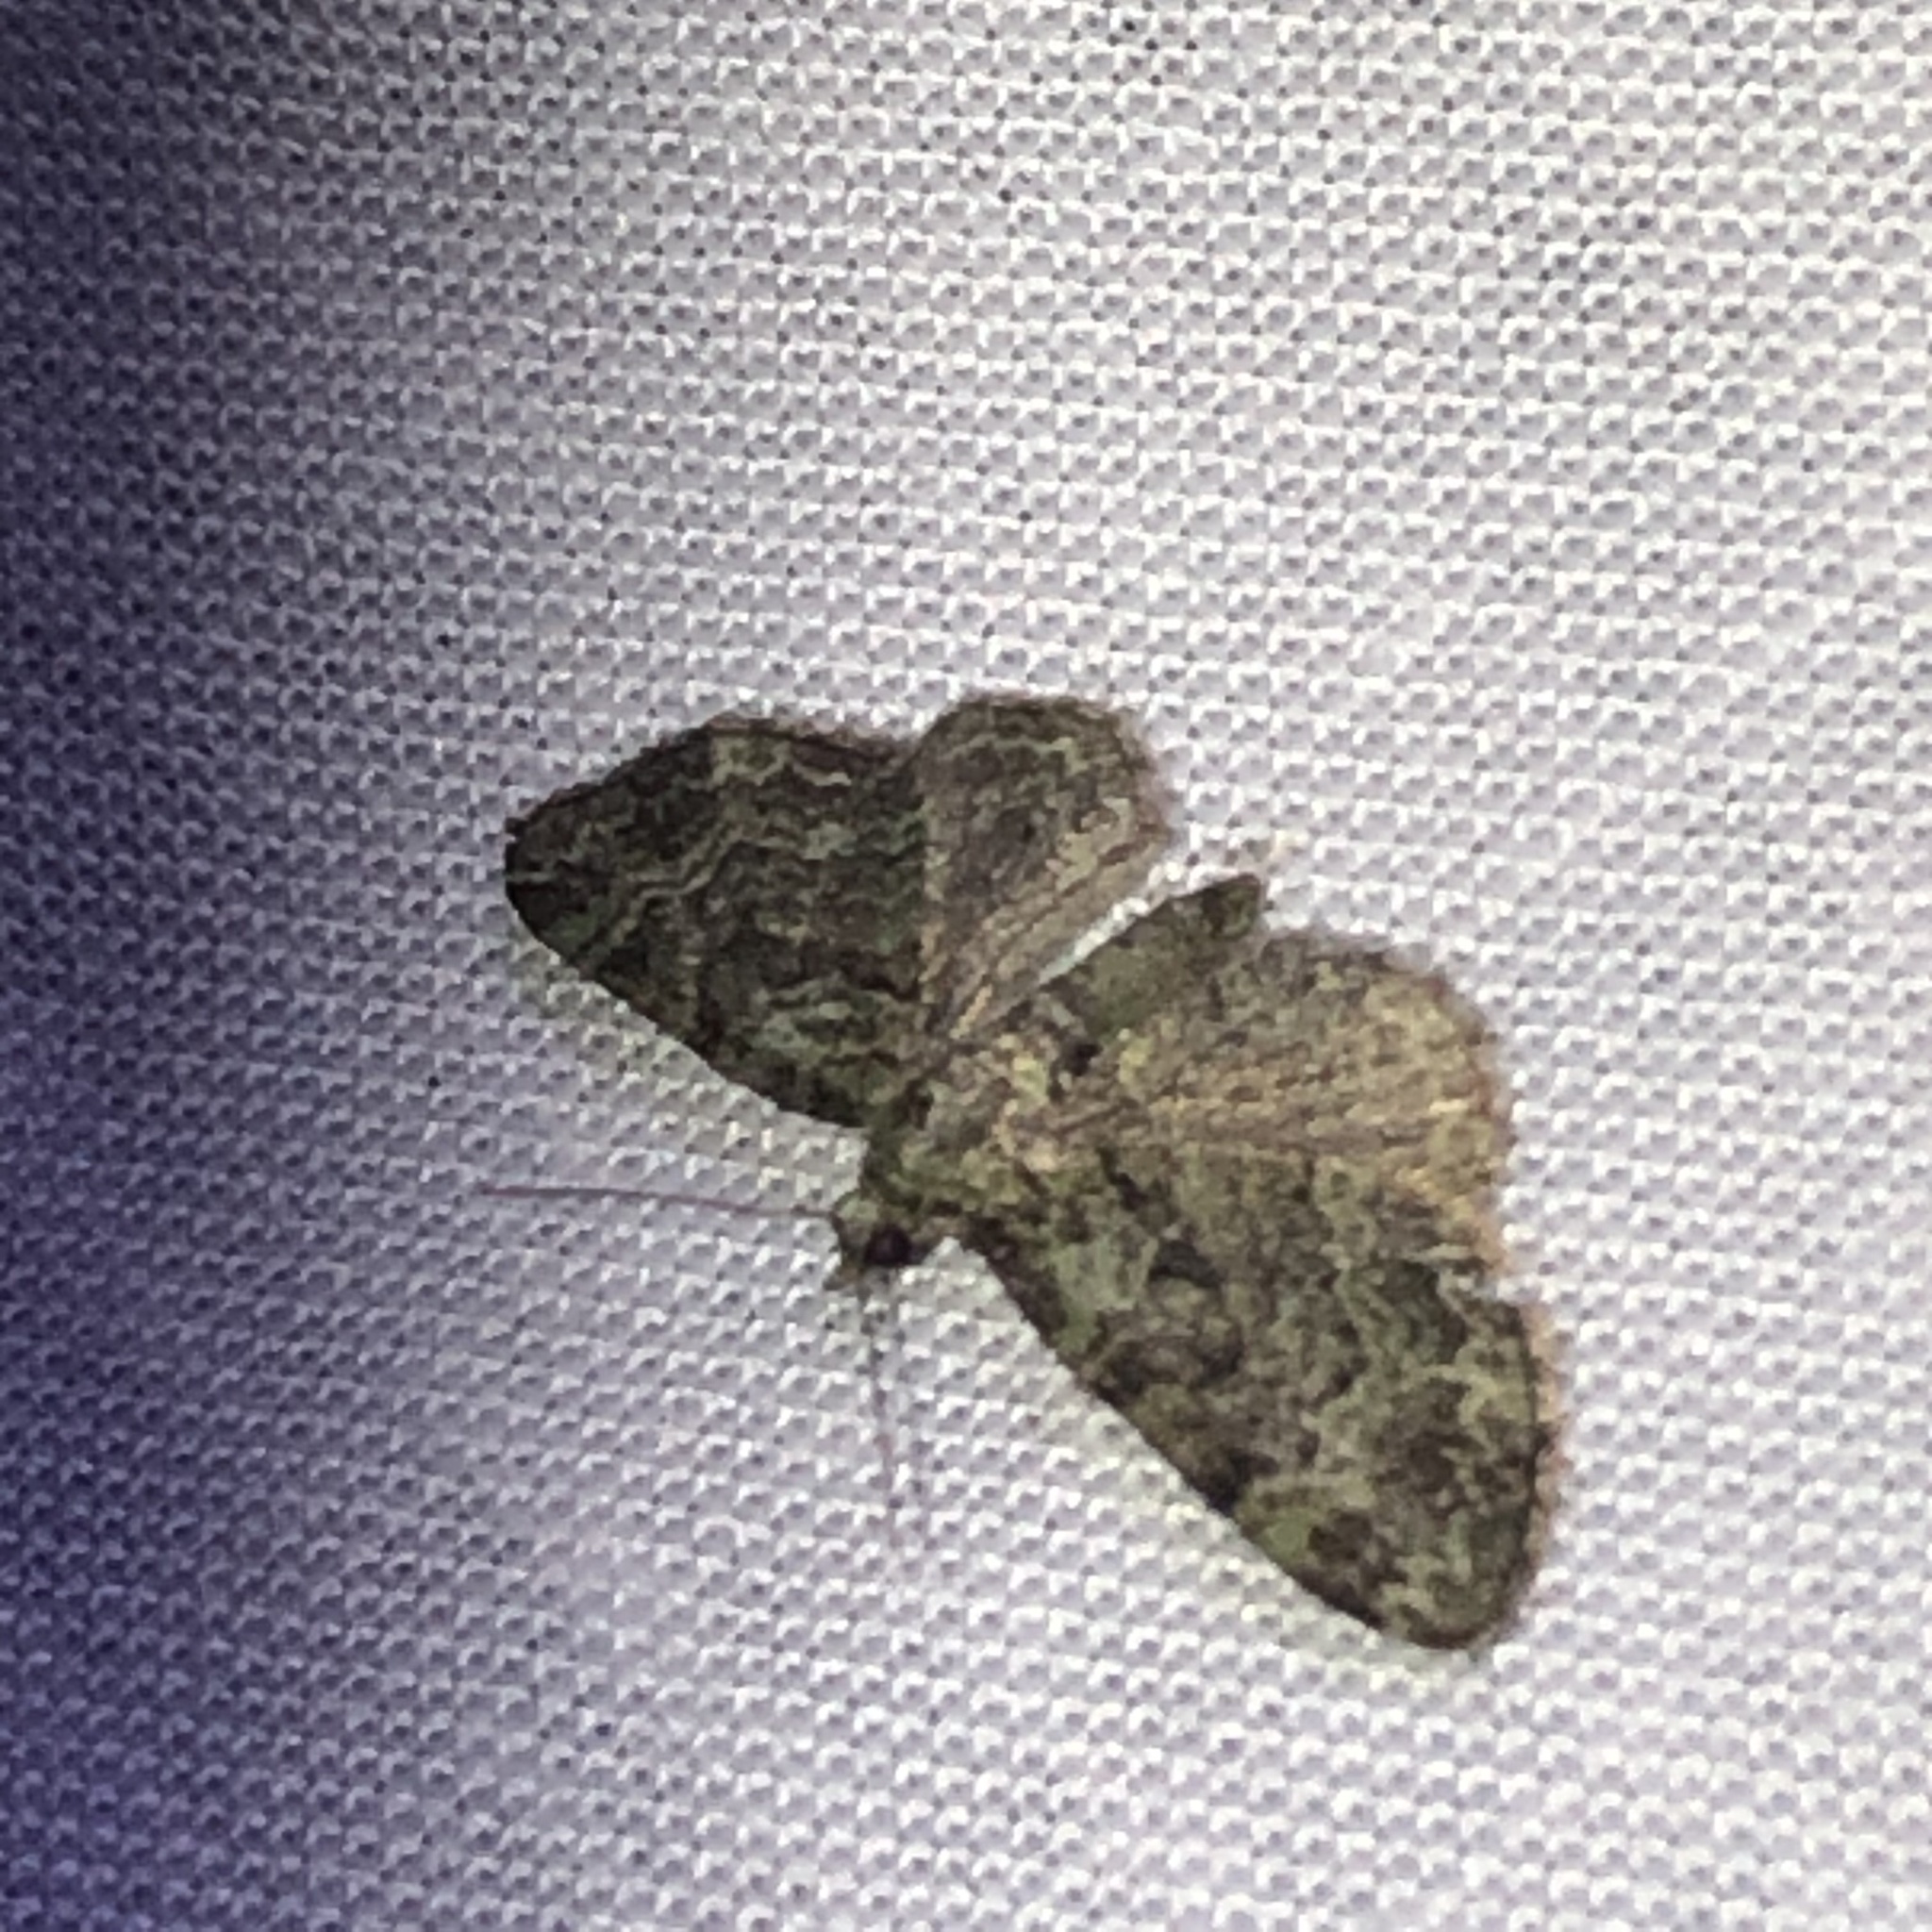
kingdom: Animalia
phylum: Arthropoda
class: Insecta
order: Lepidoptera
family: Geometridae
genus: Pasiphila
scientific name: Pasiphila rectangulata
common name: Green pug
